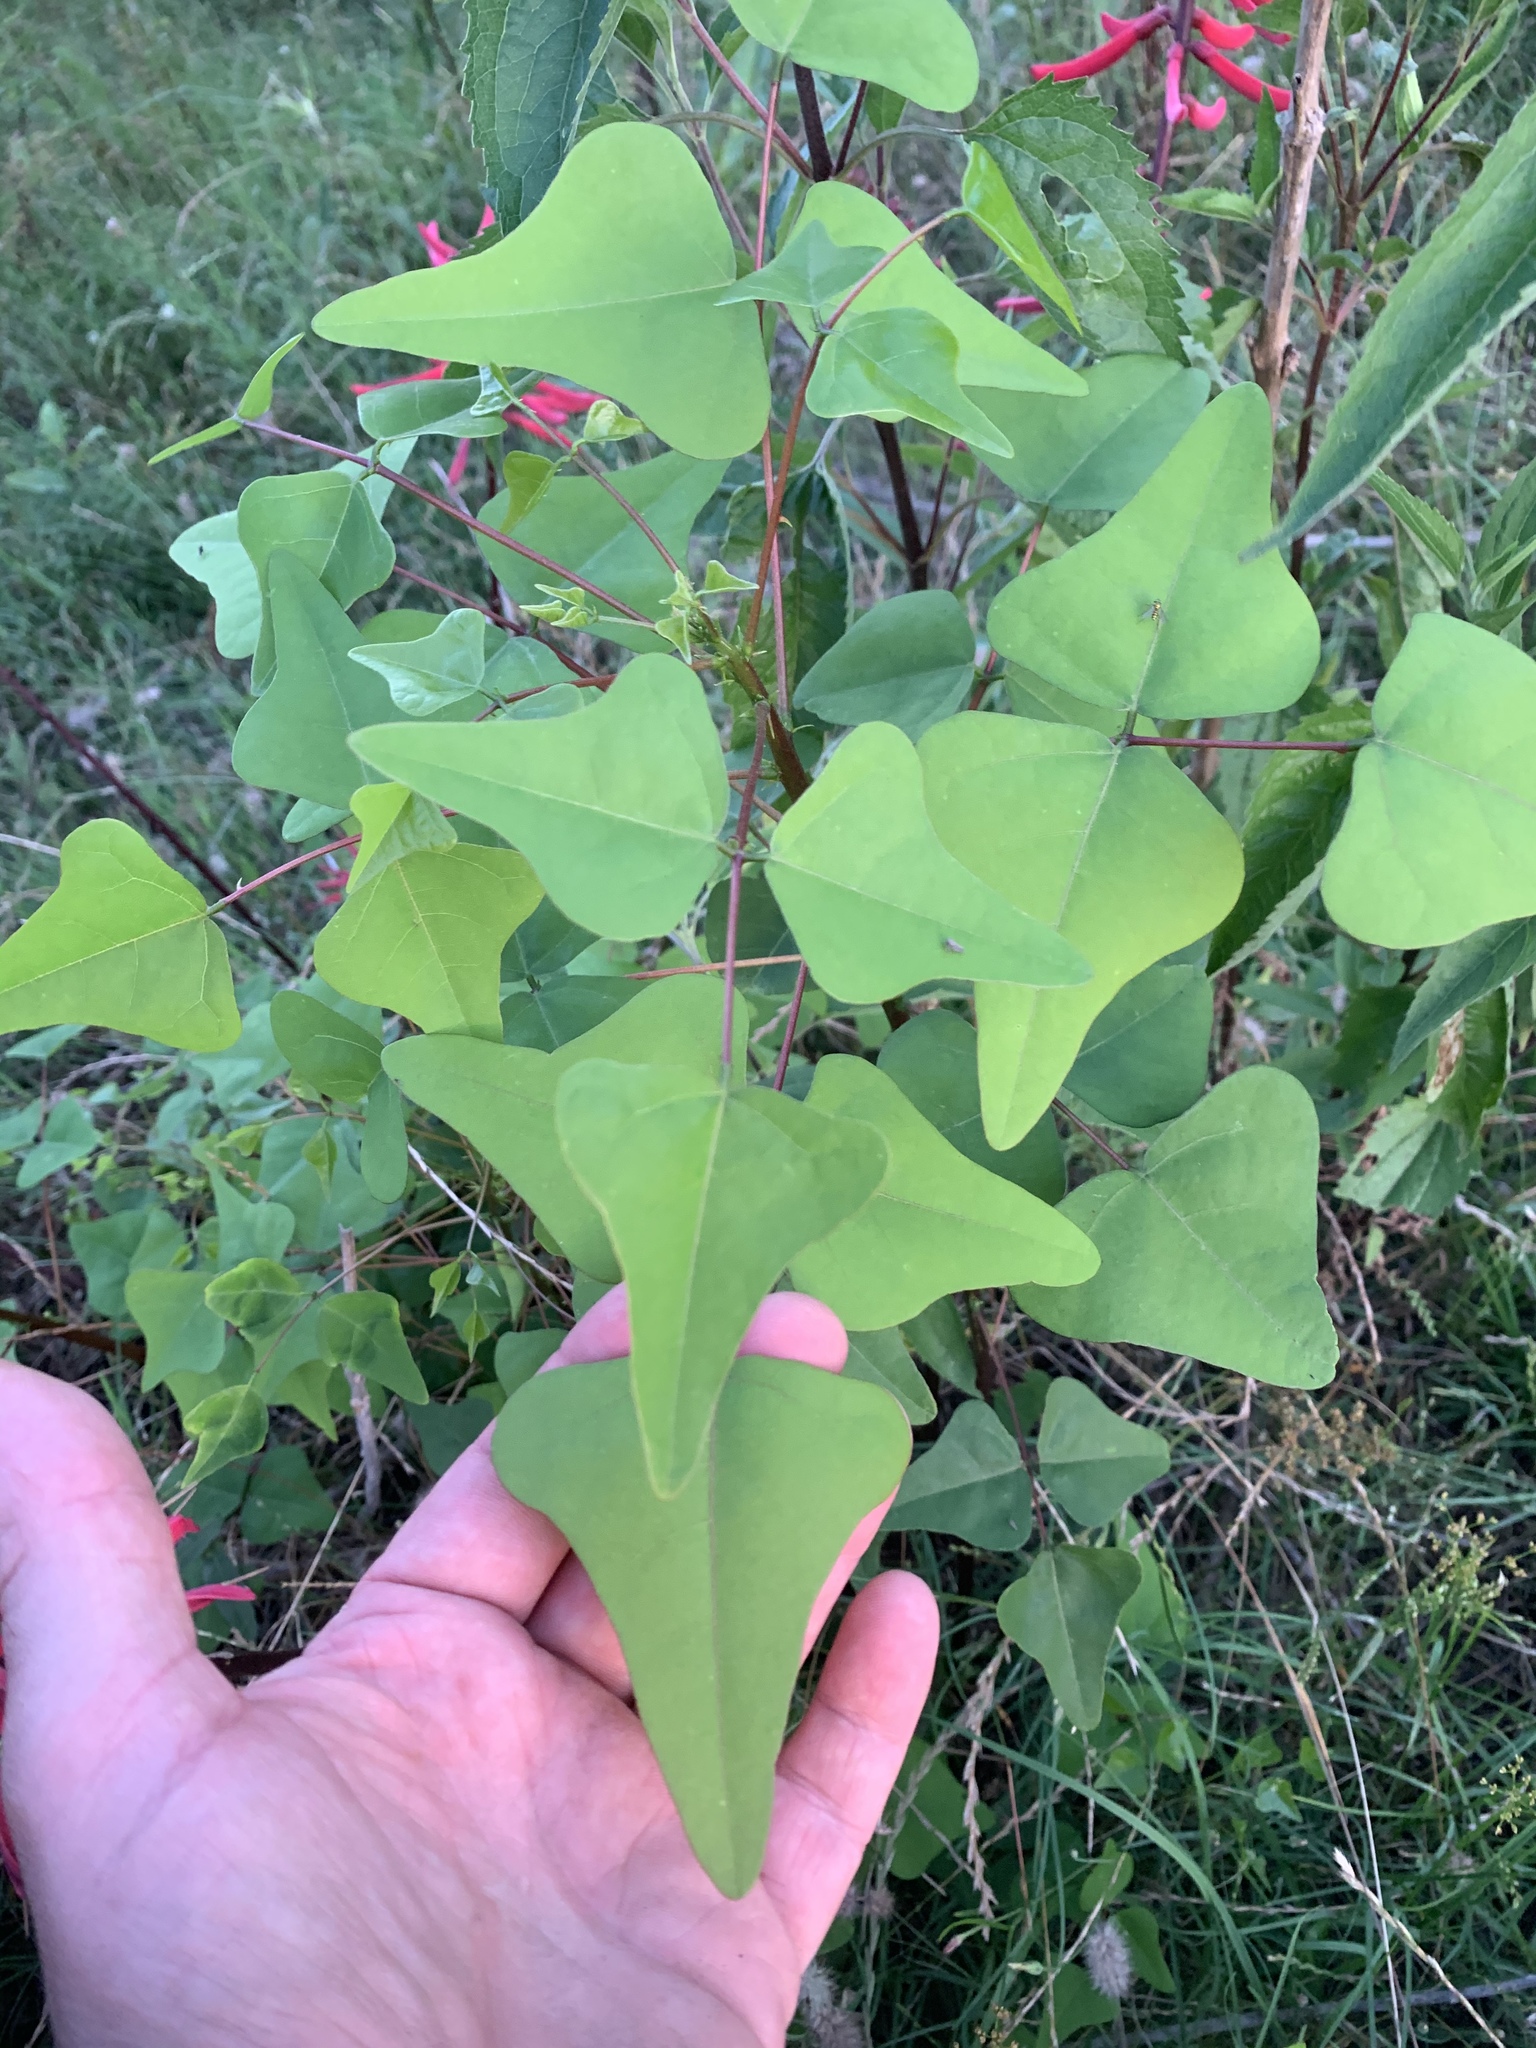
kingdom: Plantae
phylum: Tracheophyta
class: Magnoliopsida
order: Fabales
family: Fabaceae
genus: Erythrina
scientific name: Erythrina herbacea
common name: Coral-bean
